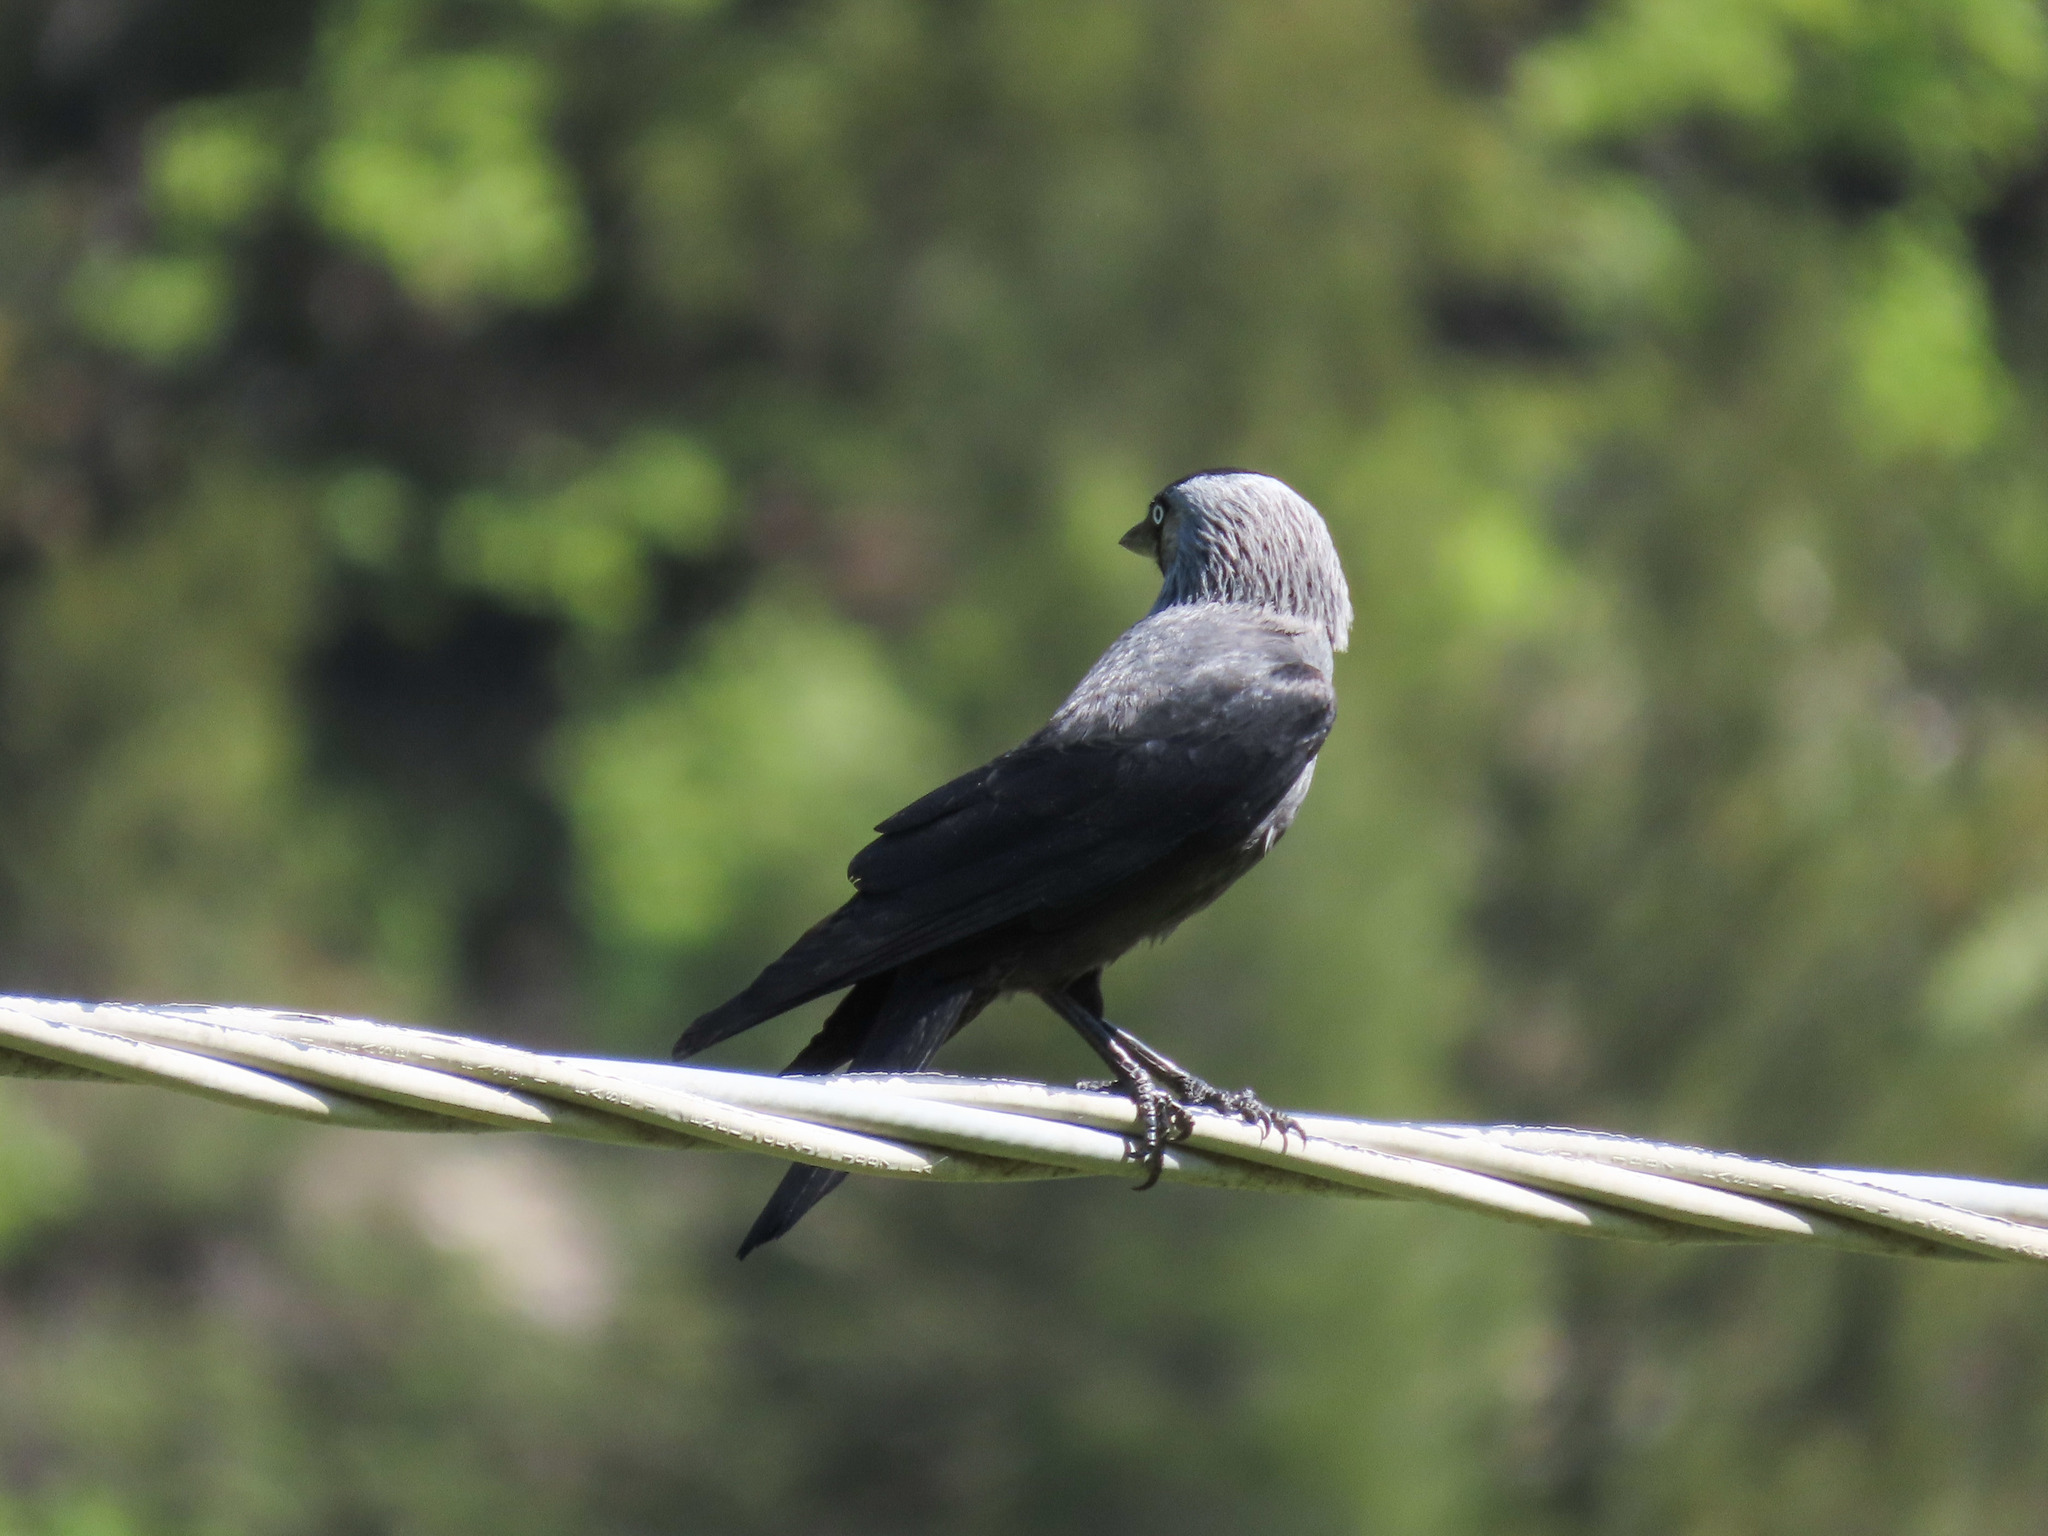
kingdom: Animalia
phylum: Chordata
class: Aves
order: Passeriformes
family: Corvidae
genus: Coloeus
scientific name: Coloeus monedula
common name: Western jackdaw
